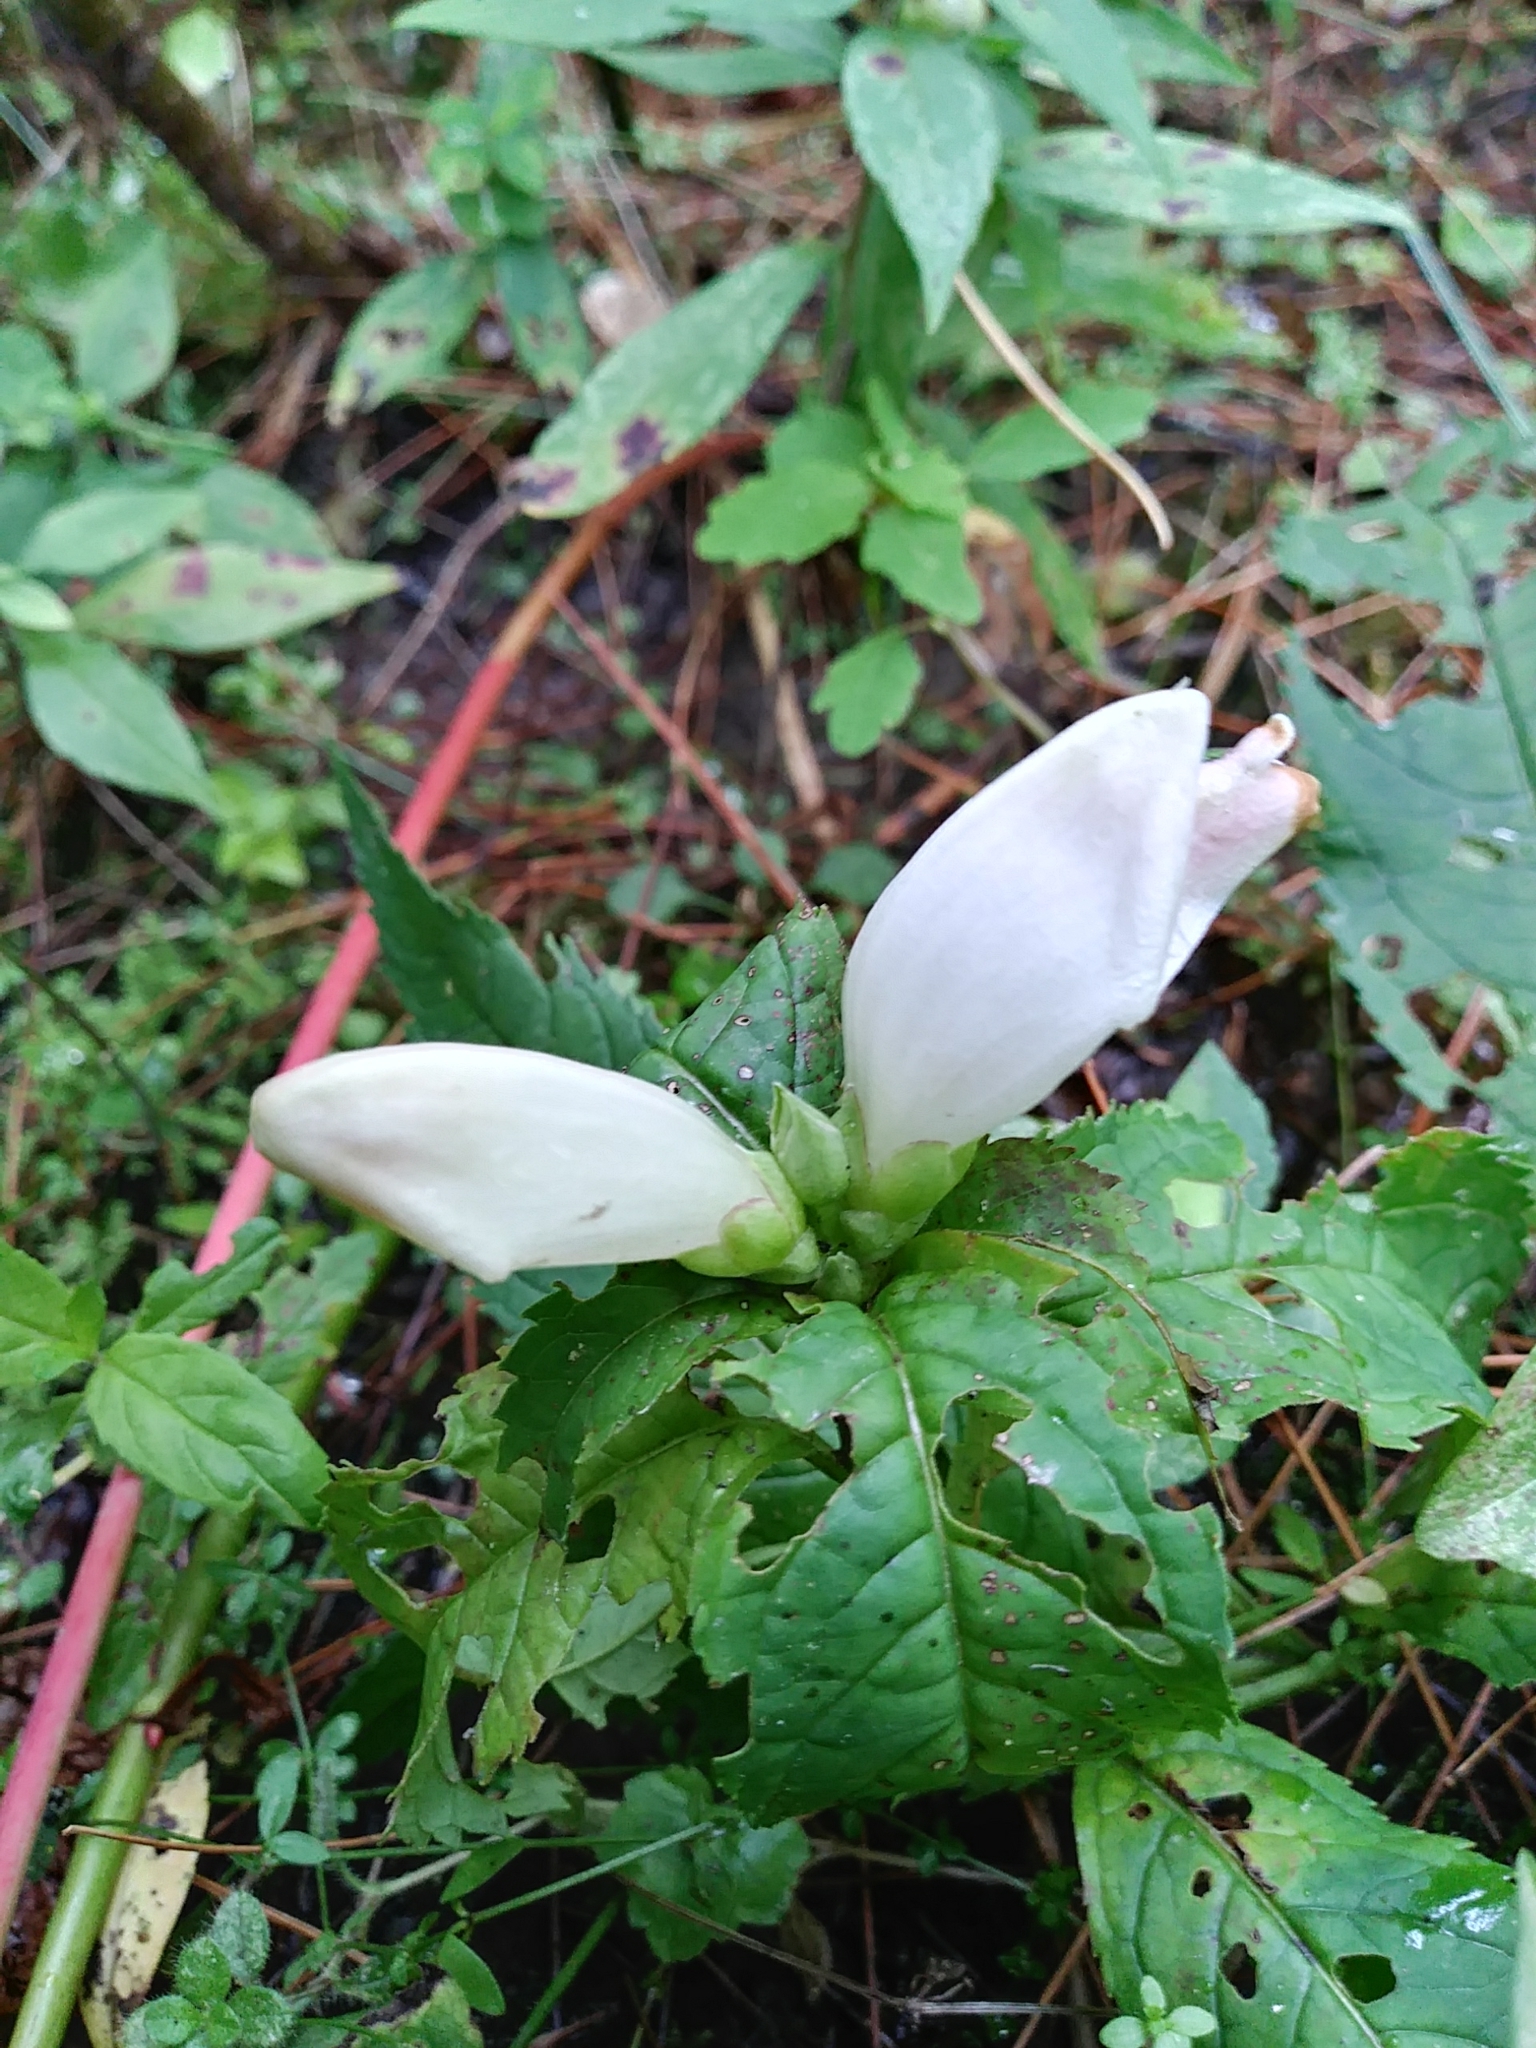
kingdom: Plantae
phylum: Tracheophyta
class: Magnoliopsida
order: Lamiales
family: Plantaginaceae
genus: Chelone
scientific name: Chelone glabra
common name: Snakehead
